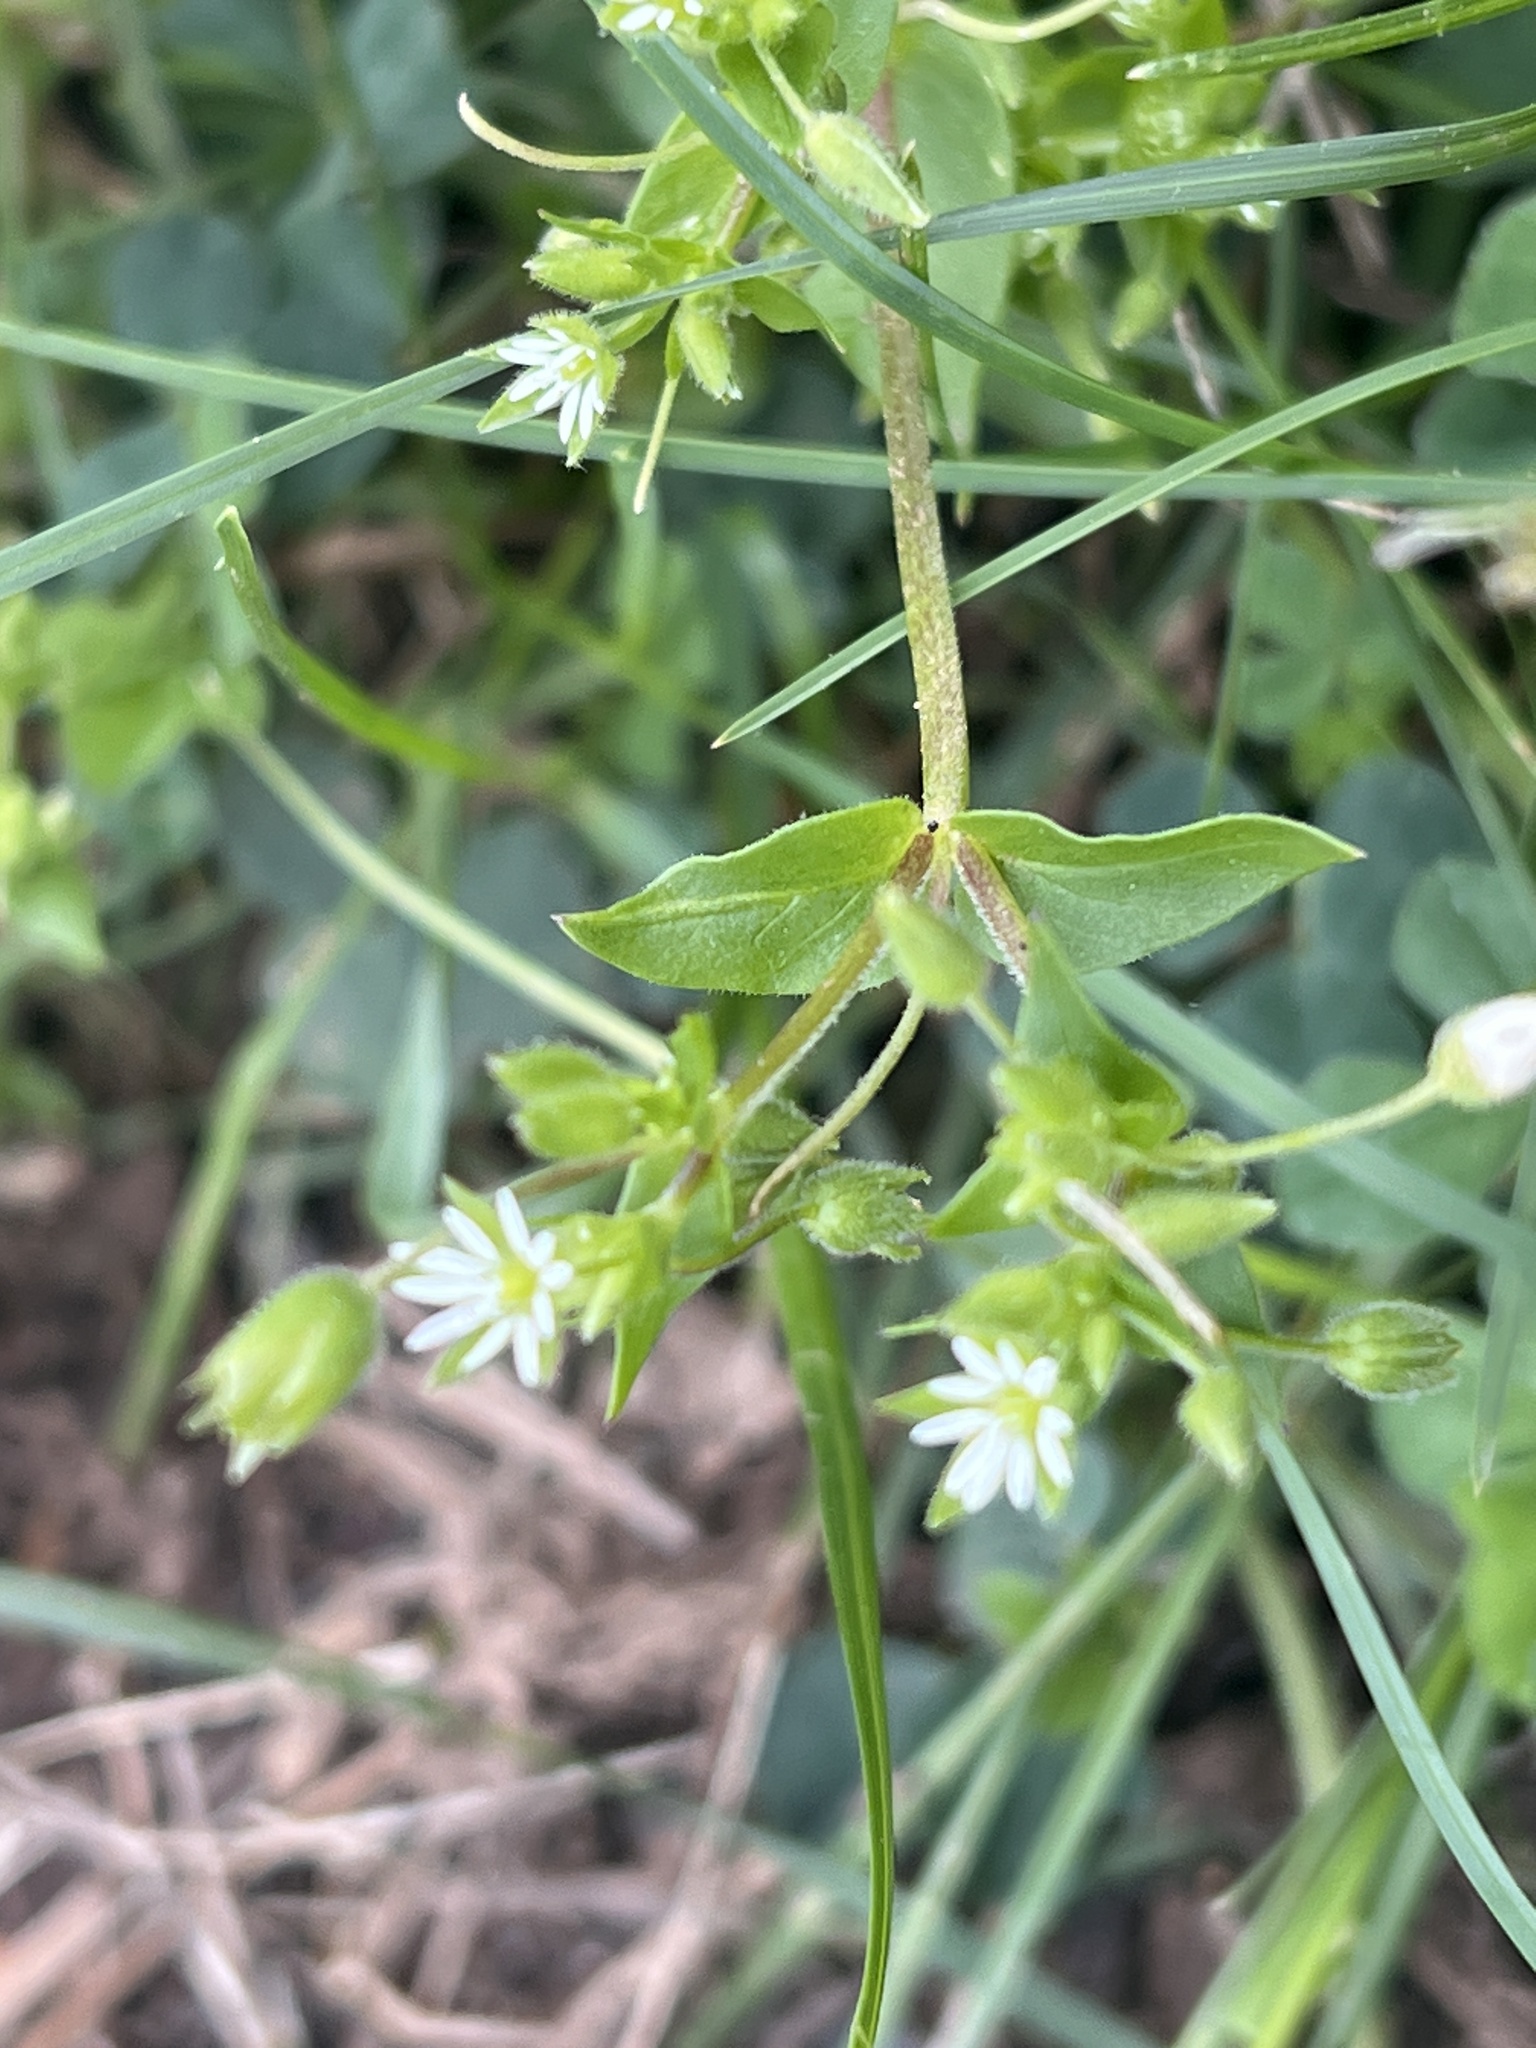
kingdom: Plantae
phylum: Tracheophyta
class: Magnoliopsida
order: Caryophyllales
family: Caryophyllaceae
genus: Stellaria
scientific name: Stellaria media
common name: Common chickweed
